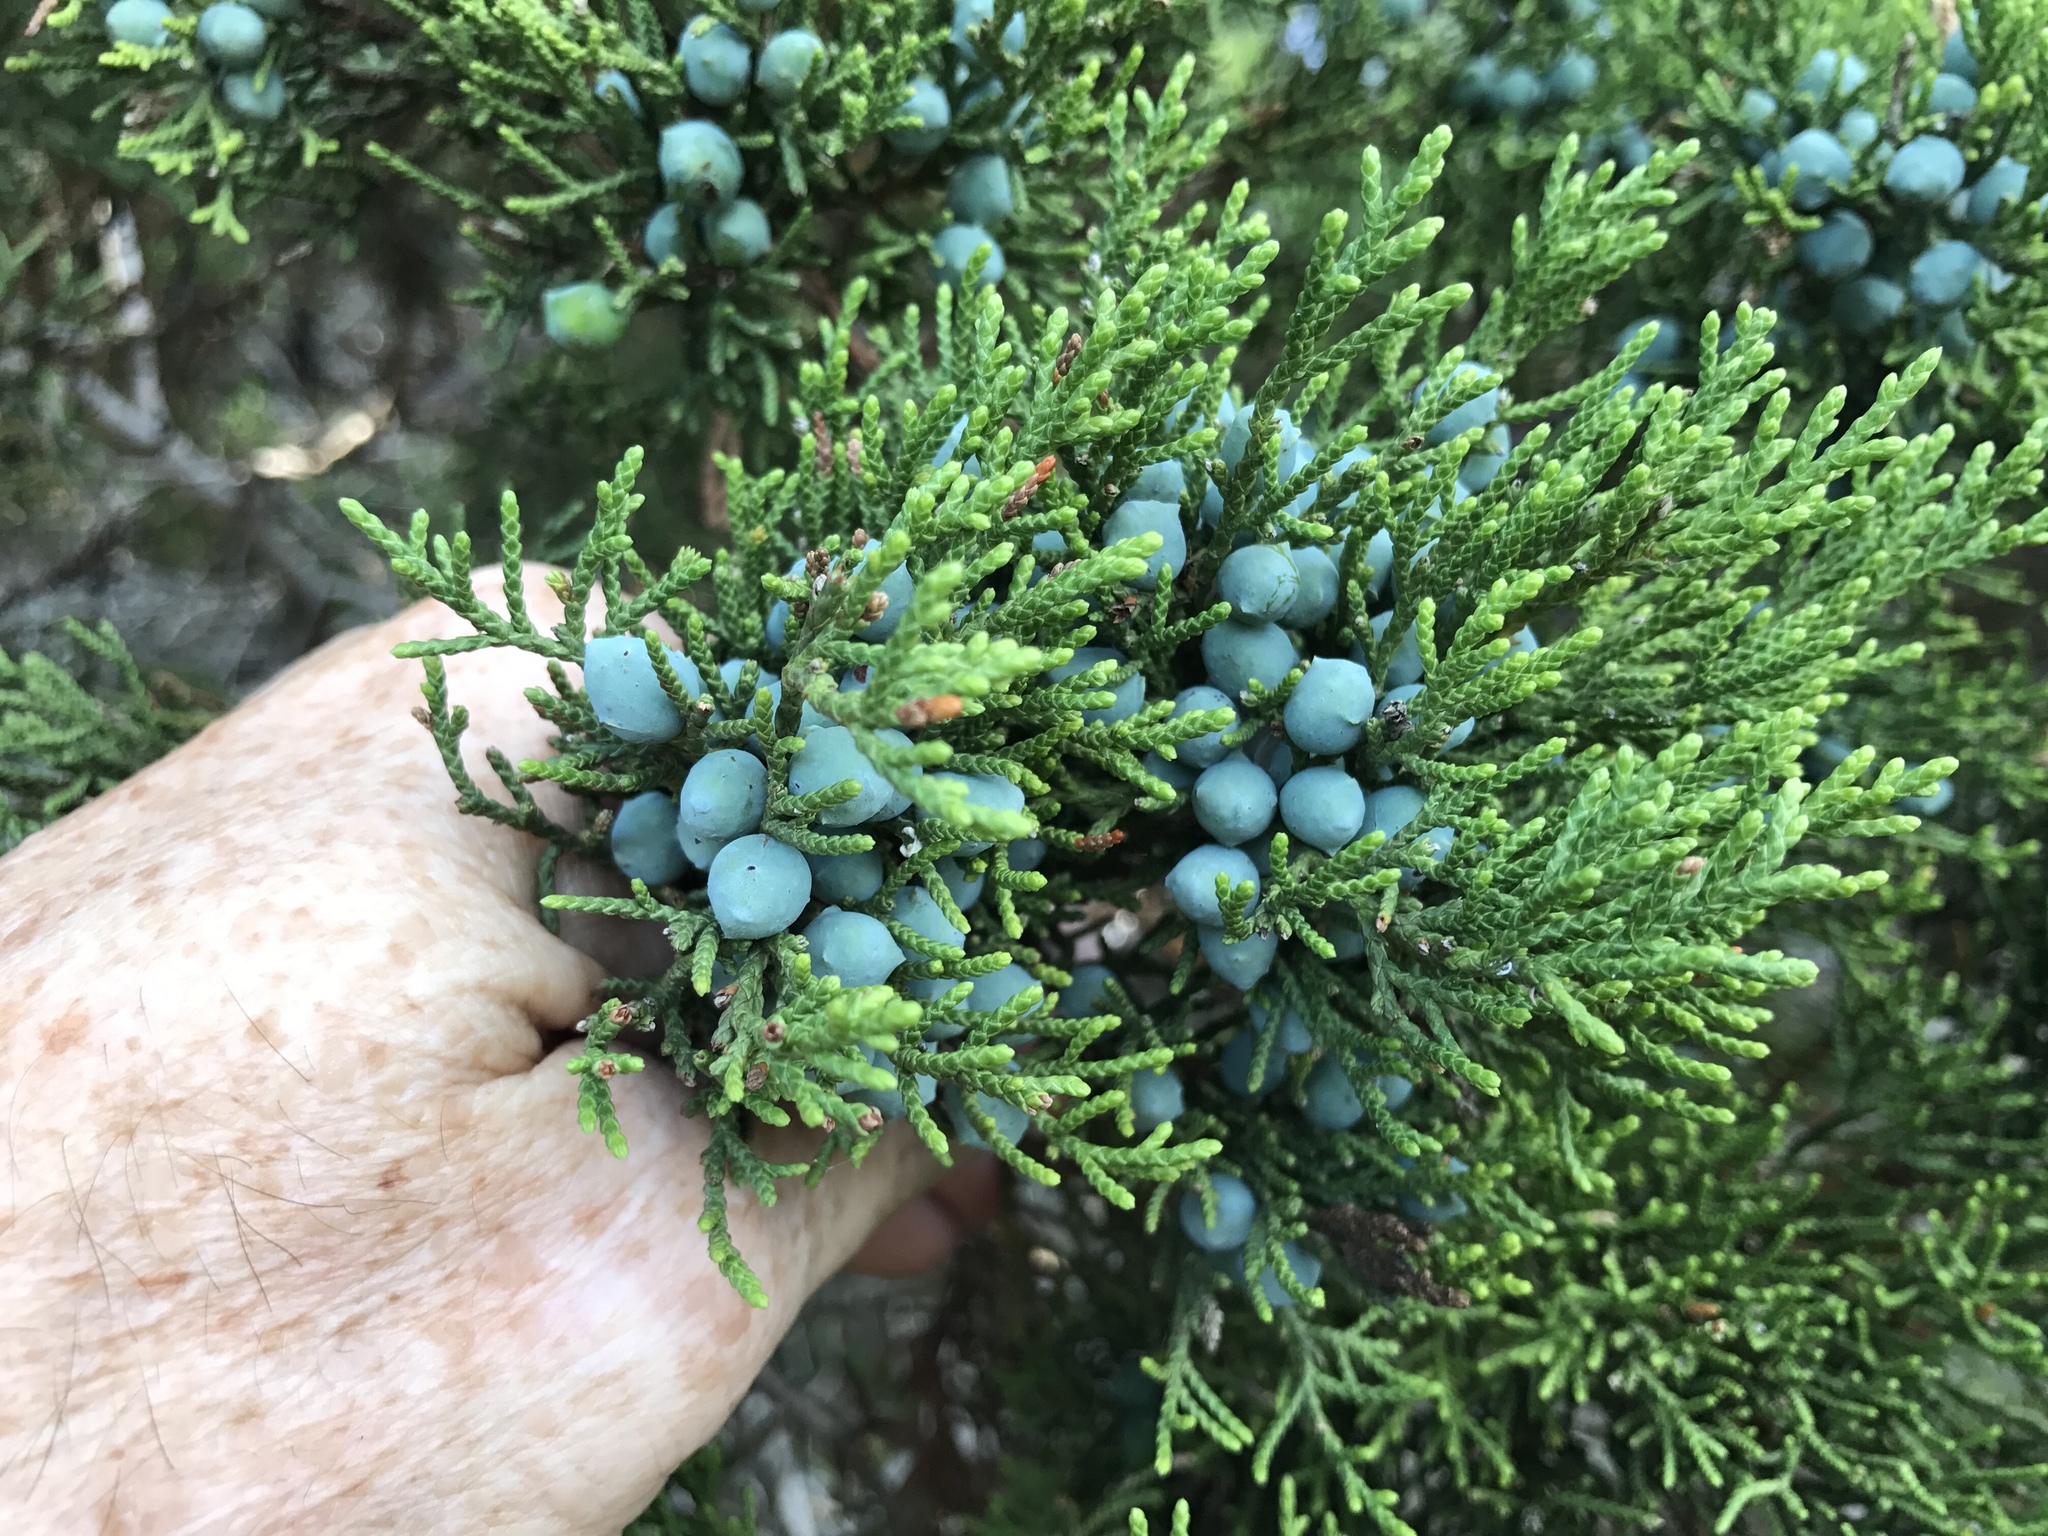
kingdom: Plantae
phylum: Tracheophyta
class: Pinopsida
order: Pinales
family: Cupressaceae
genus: Juniperus
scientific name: Juniperus ashei
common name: Mexican juniper
